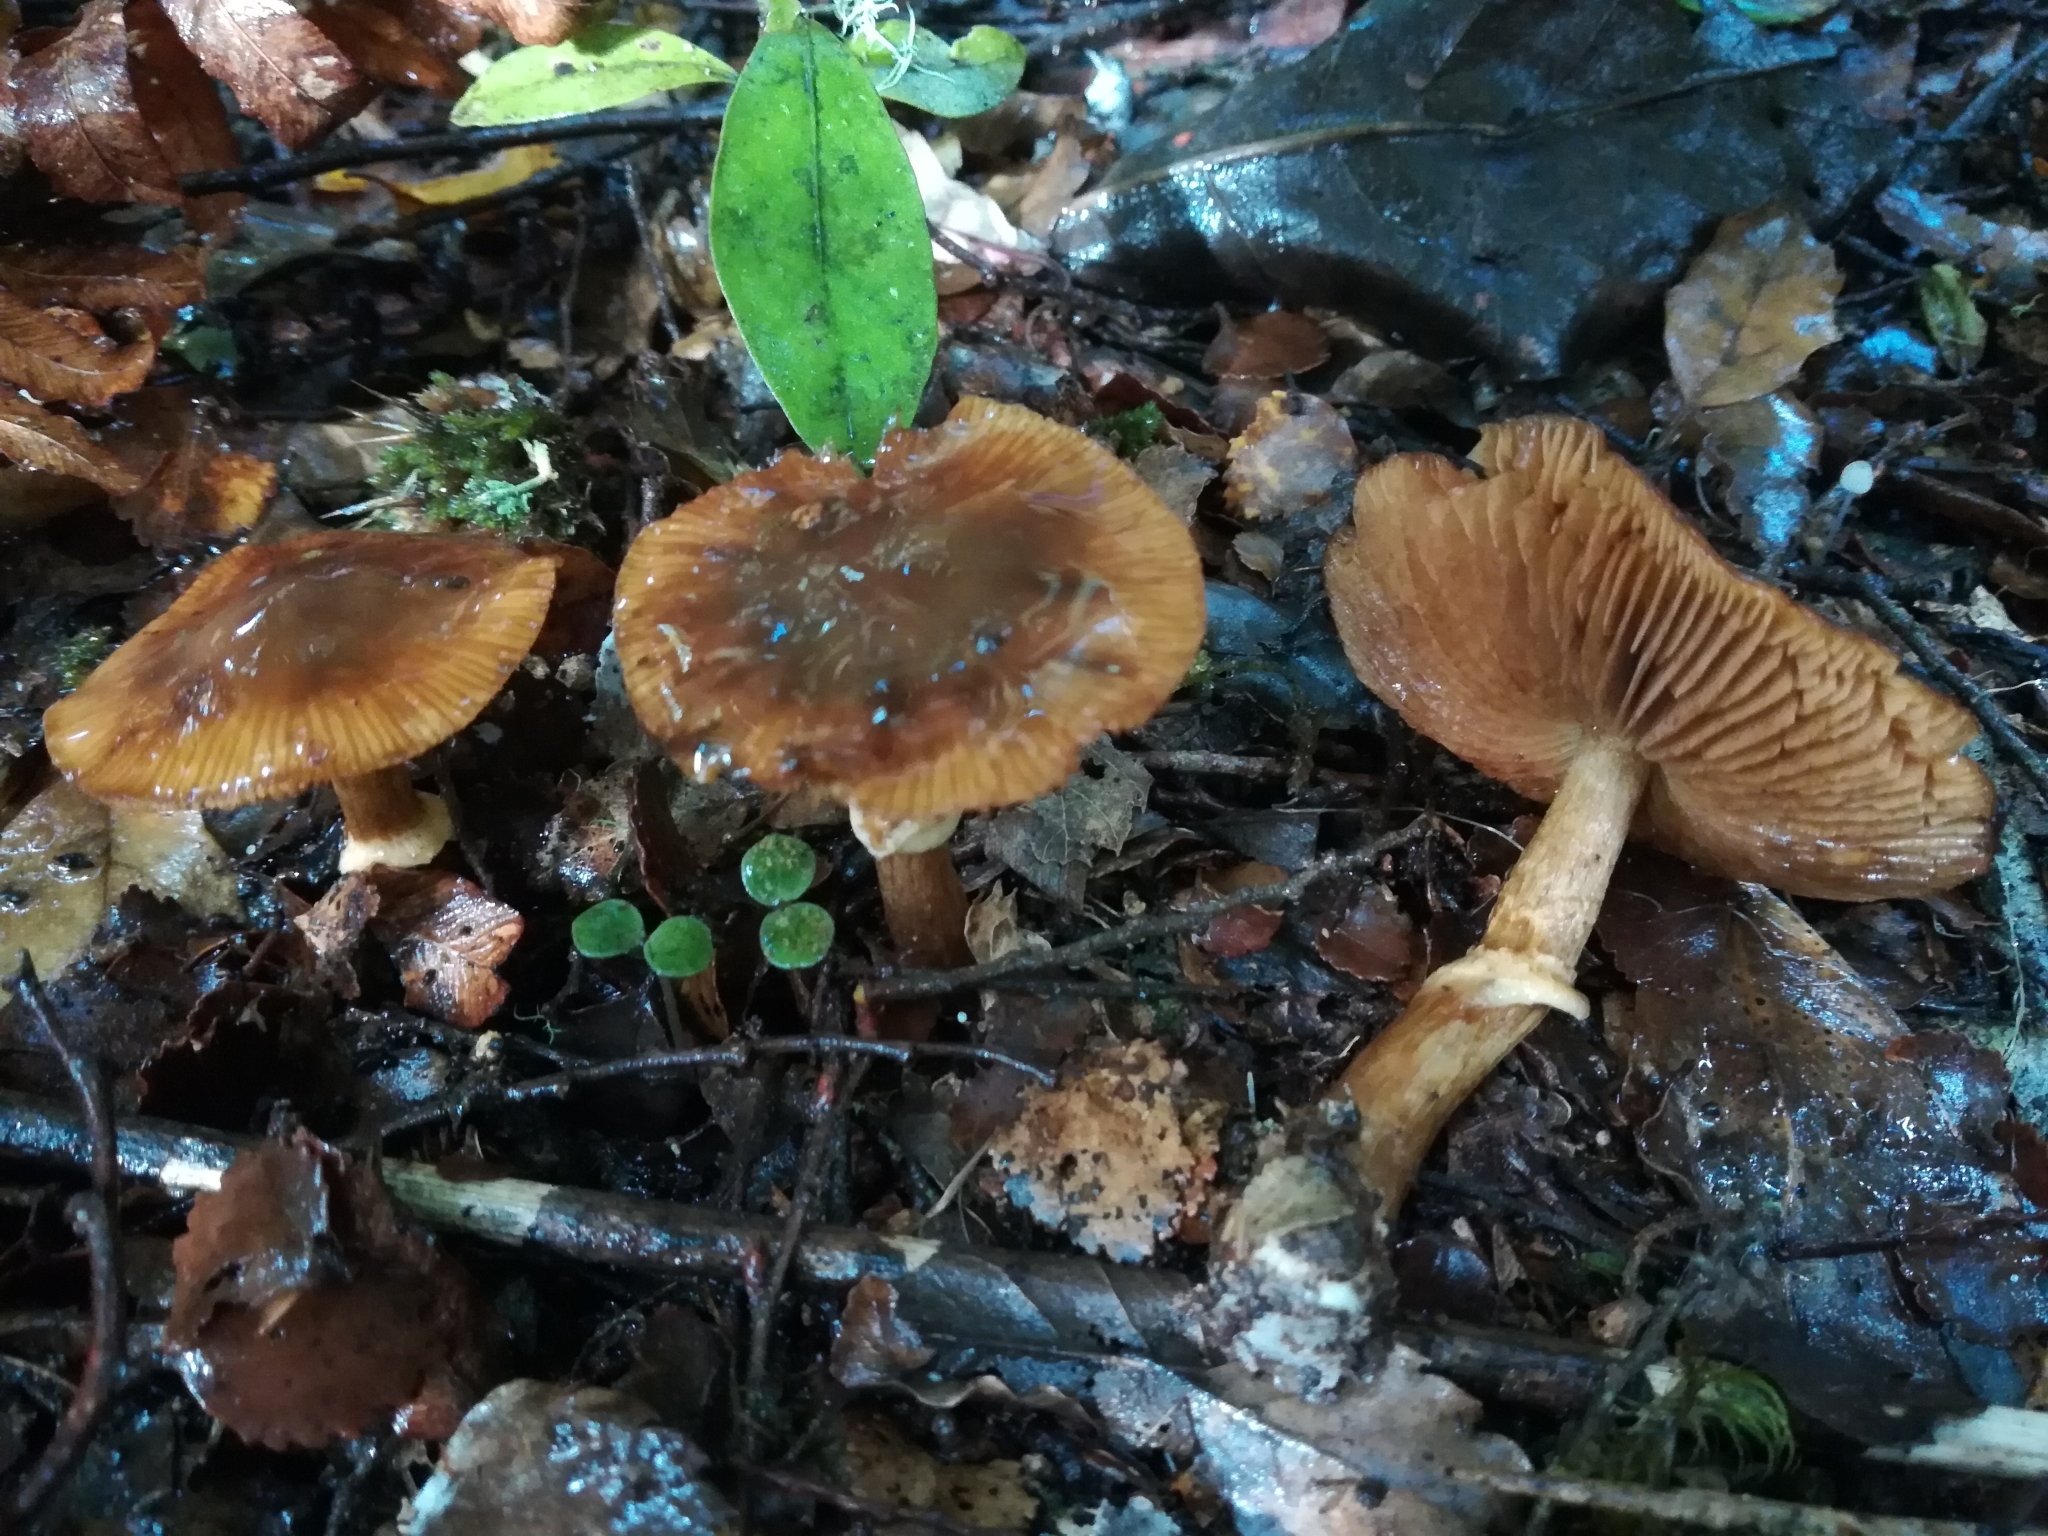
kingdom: Fungi
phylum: Basidiomycota
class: Agaricomycetes
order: Agaricales
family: Cortinariaceae
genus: Cortinarius
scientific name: Cortinarius subcastanellus
